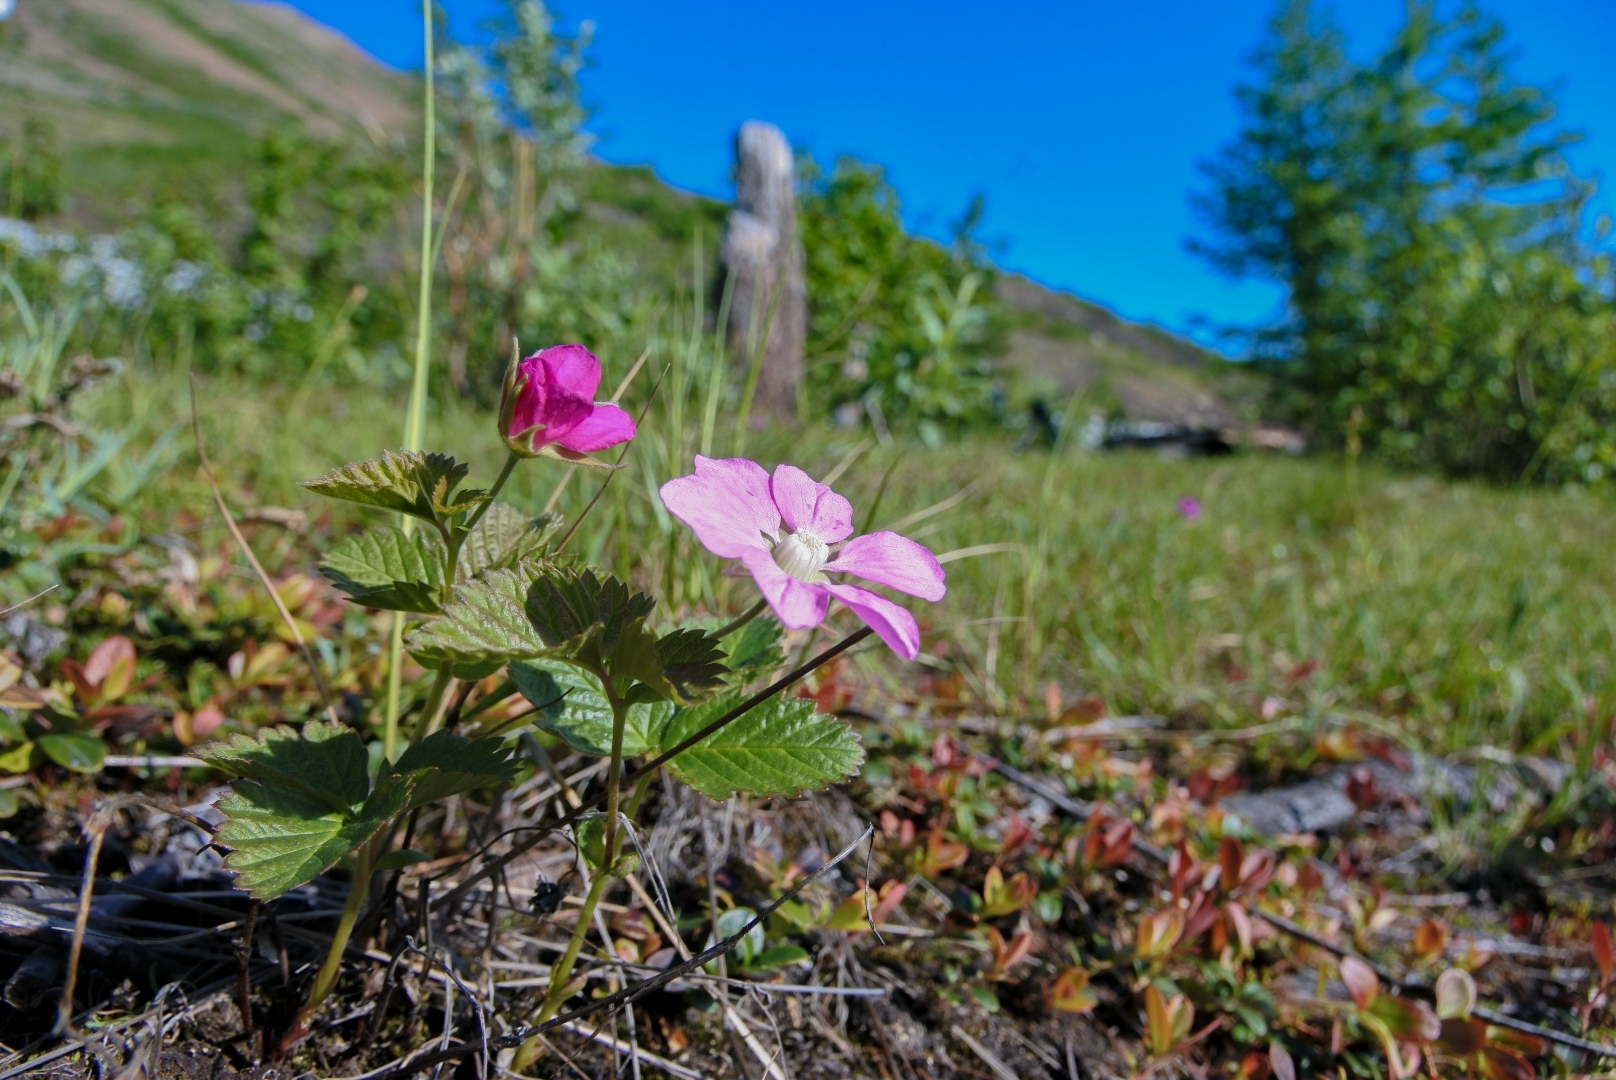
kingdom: Plantae
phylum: Tracheophyta
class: Magnoliopsida
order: Rosales
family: Rosaceae
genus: Rubus
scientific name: Rubus arcticus
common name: Arctic bramble
